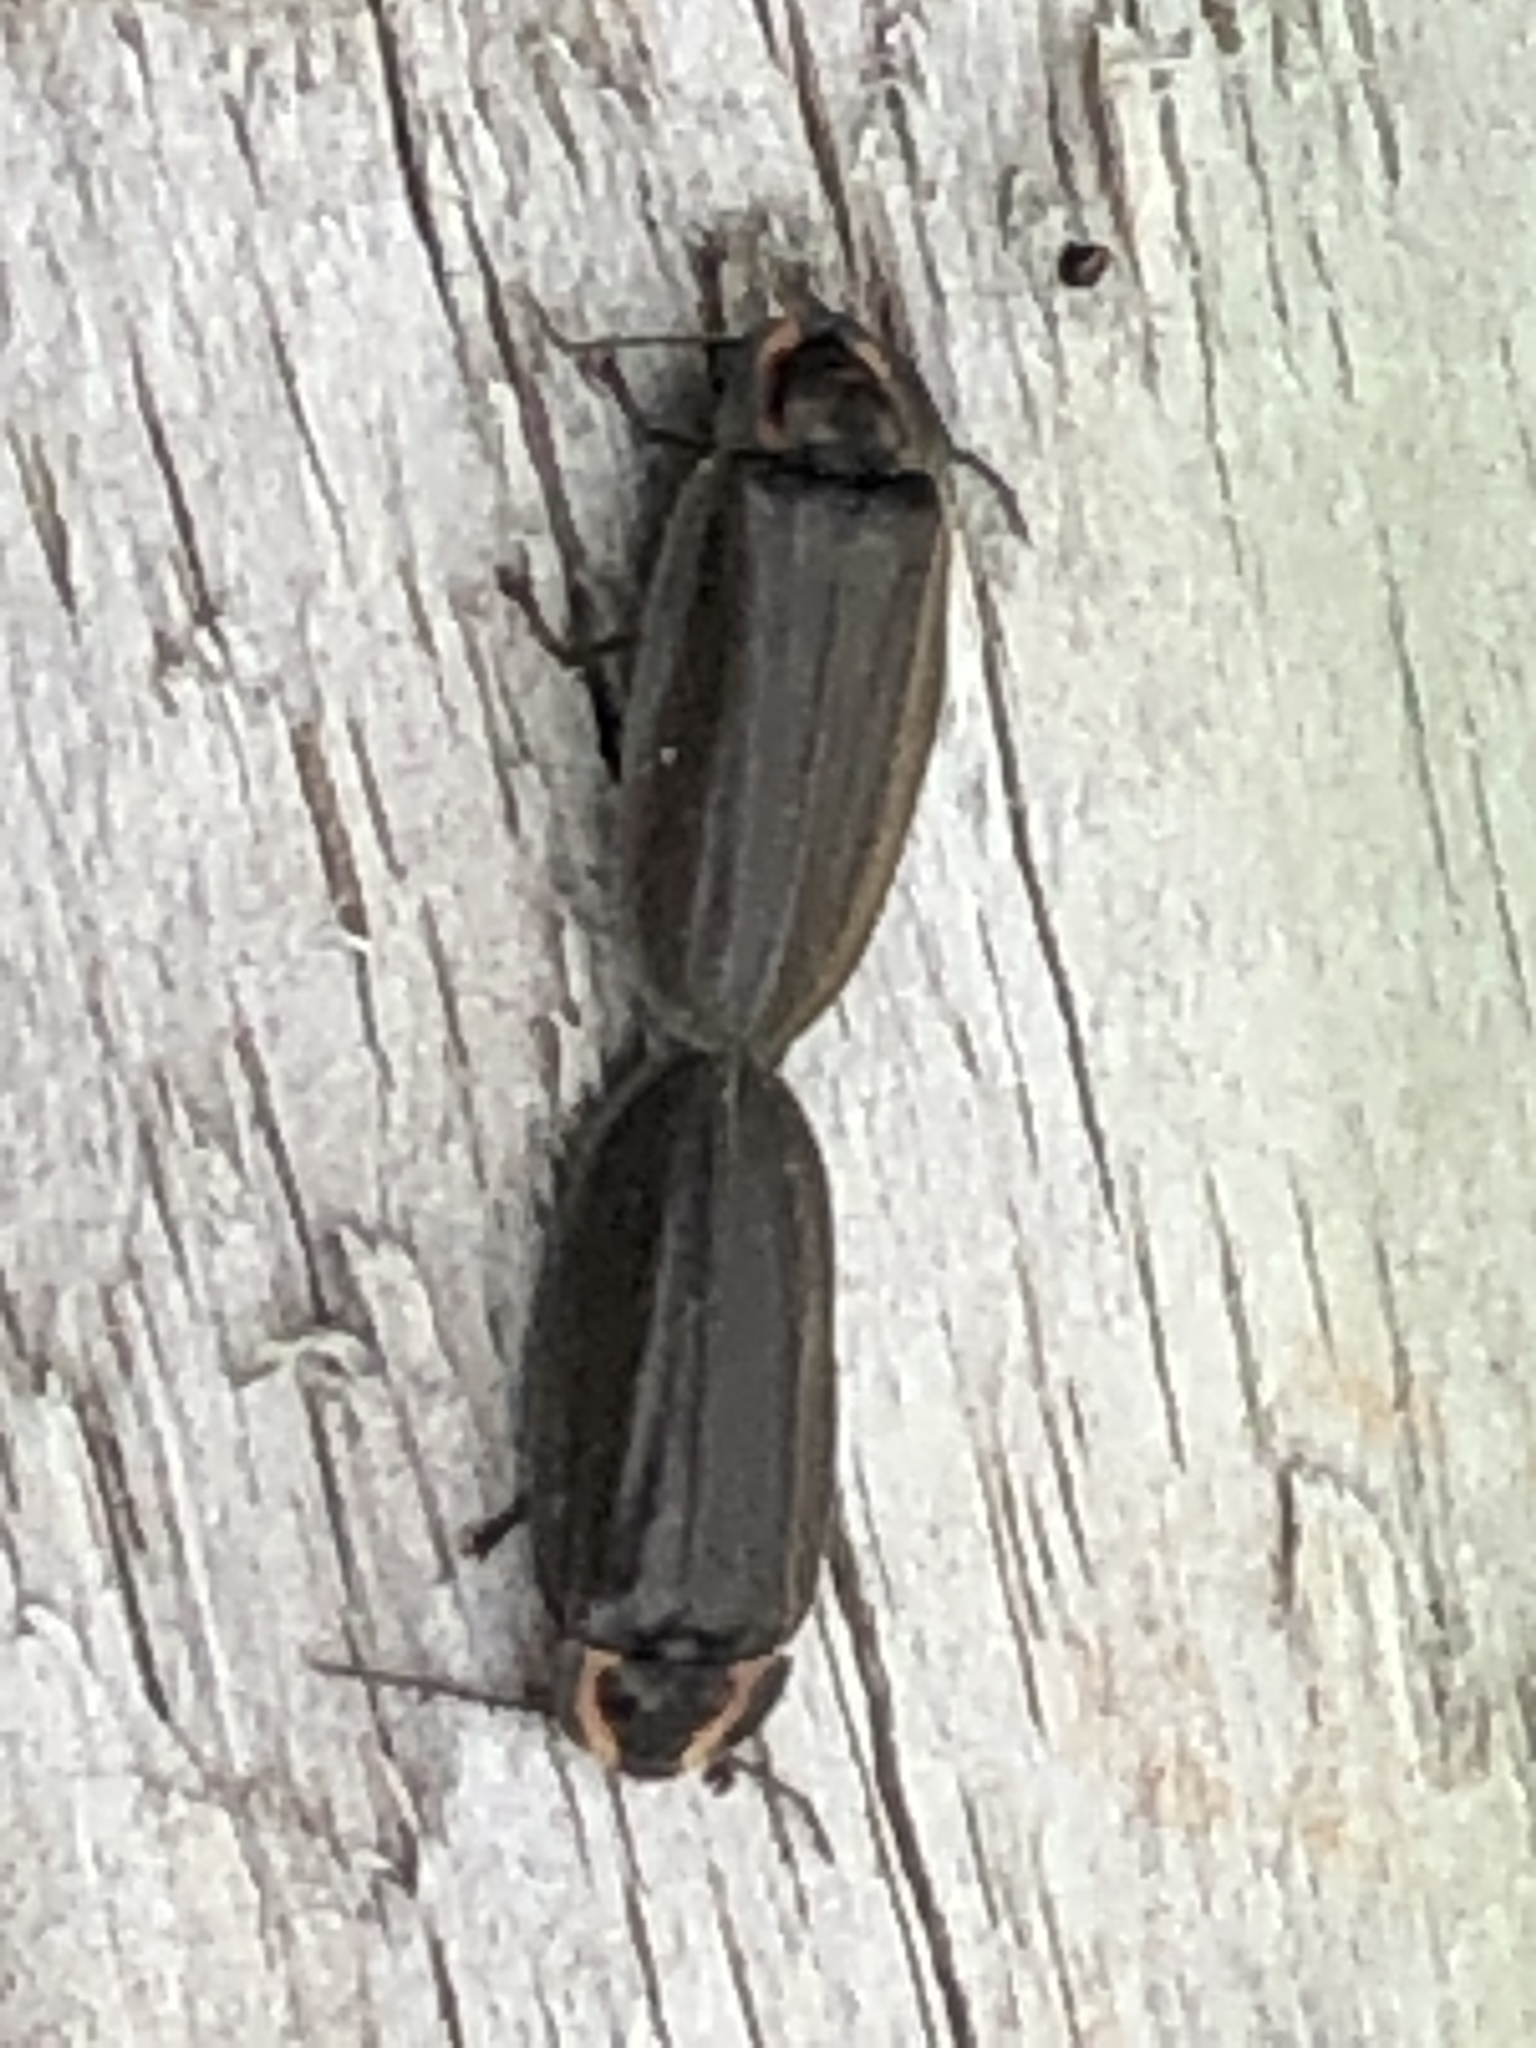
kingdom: Animalia
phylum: Arthropoda
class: Insecta
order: Coleoptera
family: Lampyridae
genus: Photinus
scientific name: Photinus corrusca
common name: Winter firefly
